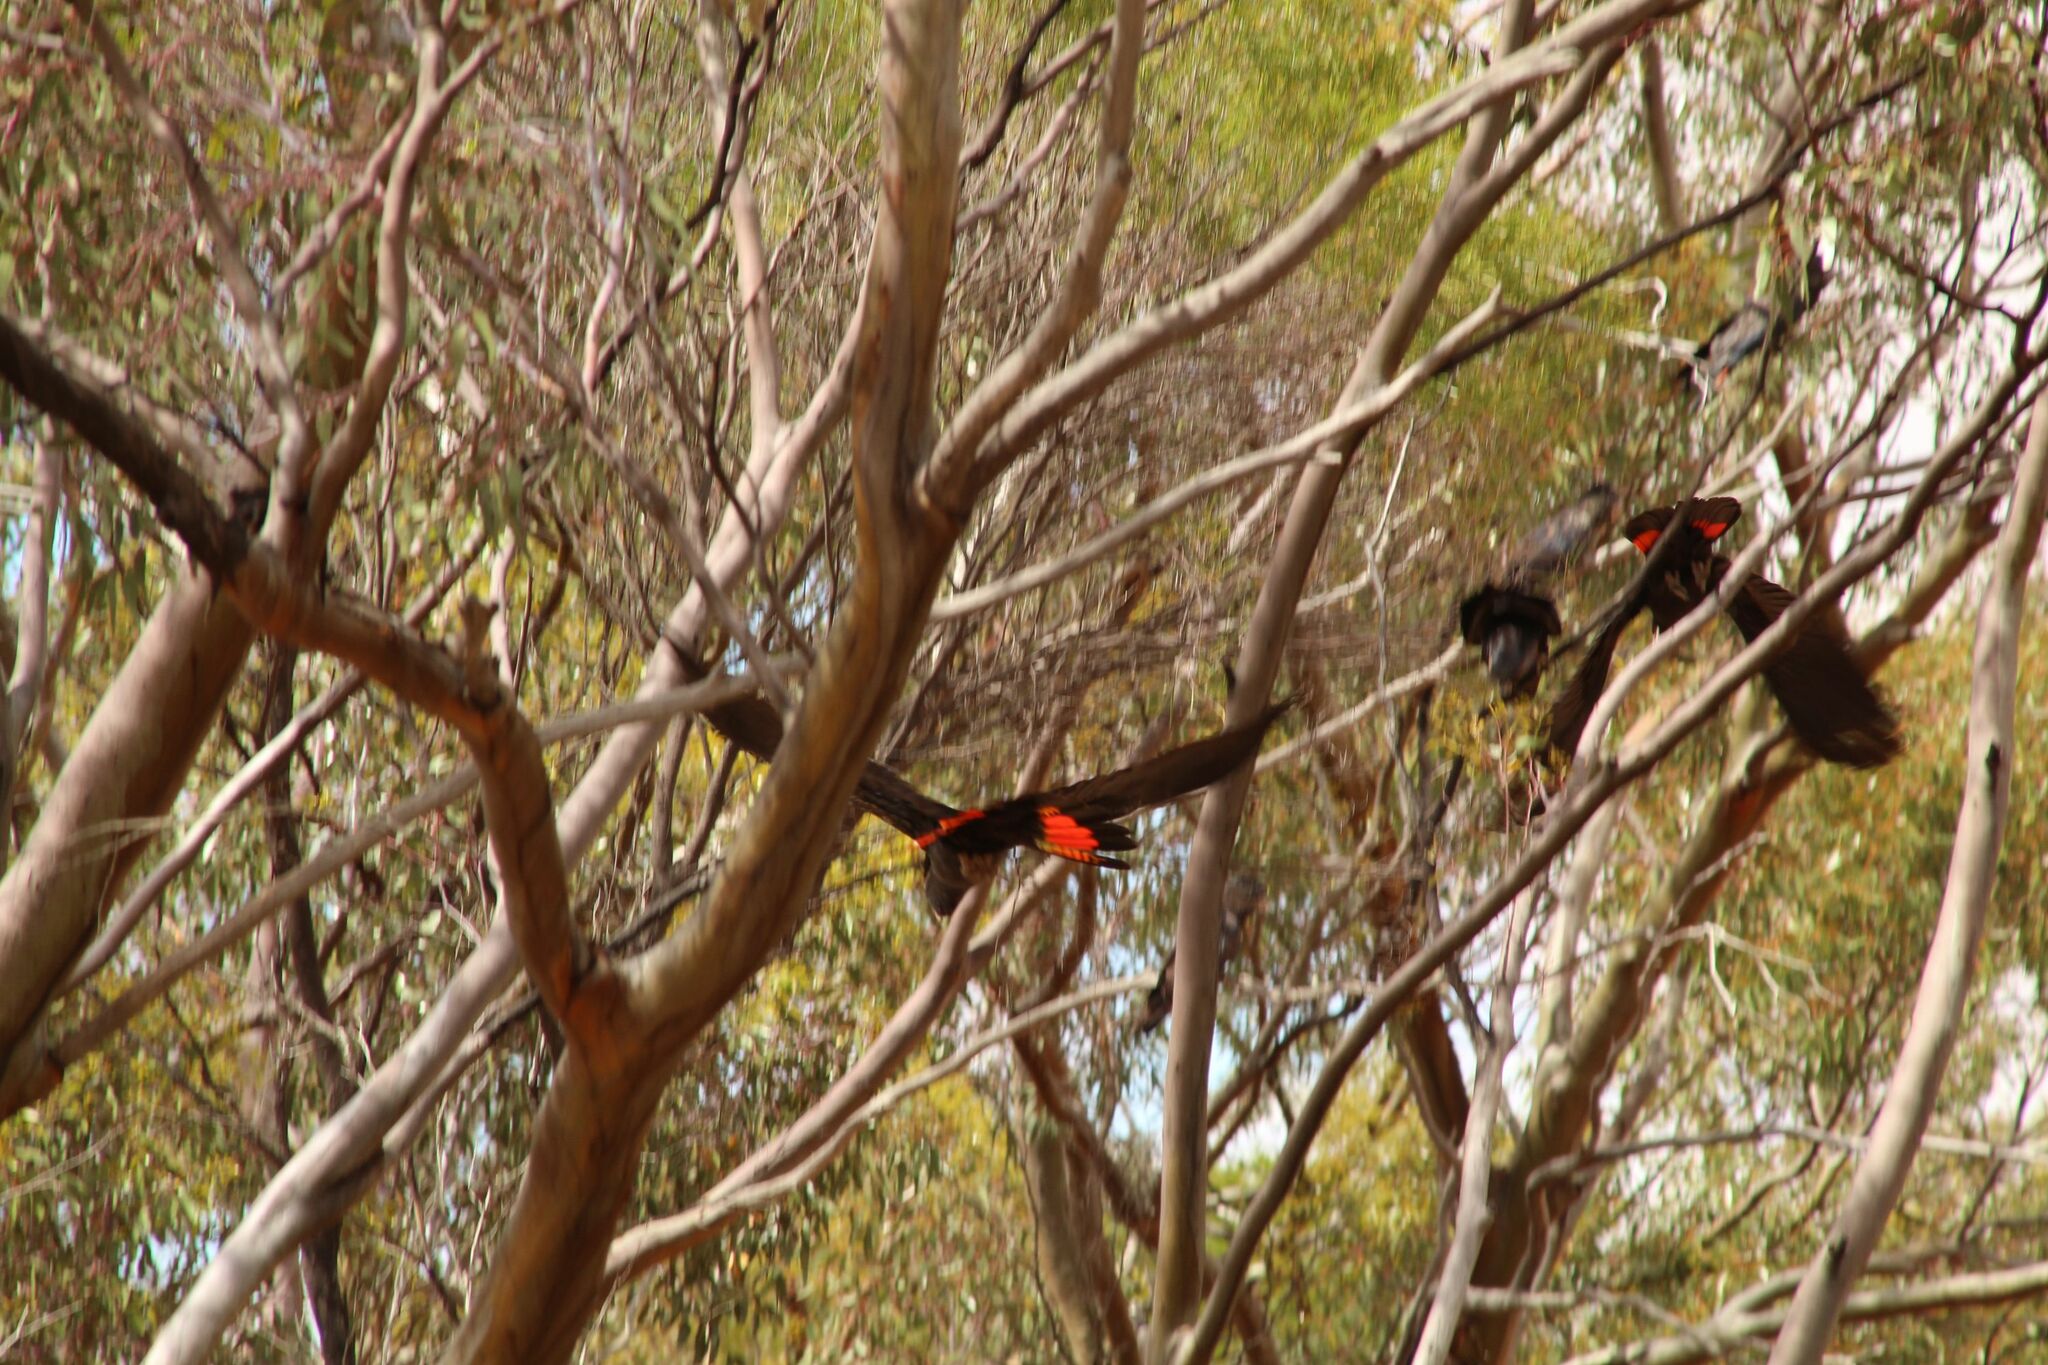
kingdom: Animalia
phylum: Chordata
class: Aves
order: Psittaciformes
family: Psittacidae
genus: Calyptorhynchus
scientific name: Calyptorhynchus banksii
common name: Red-tailed black cockatoo
